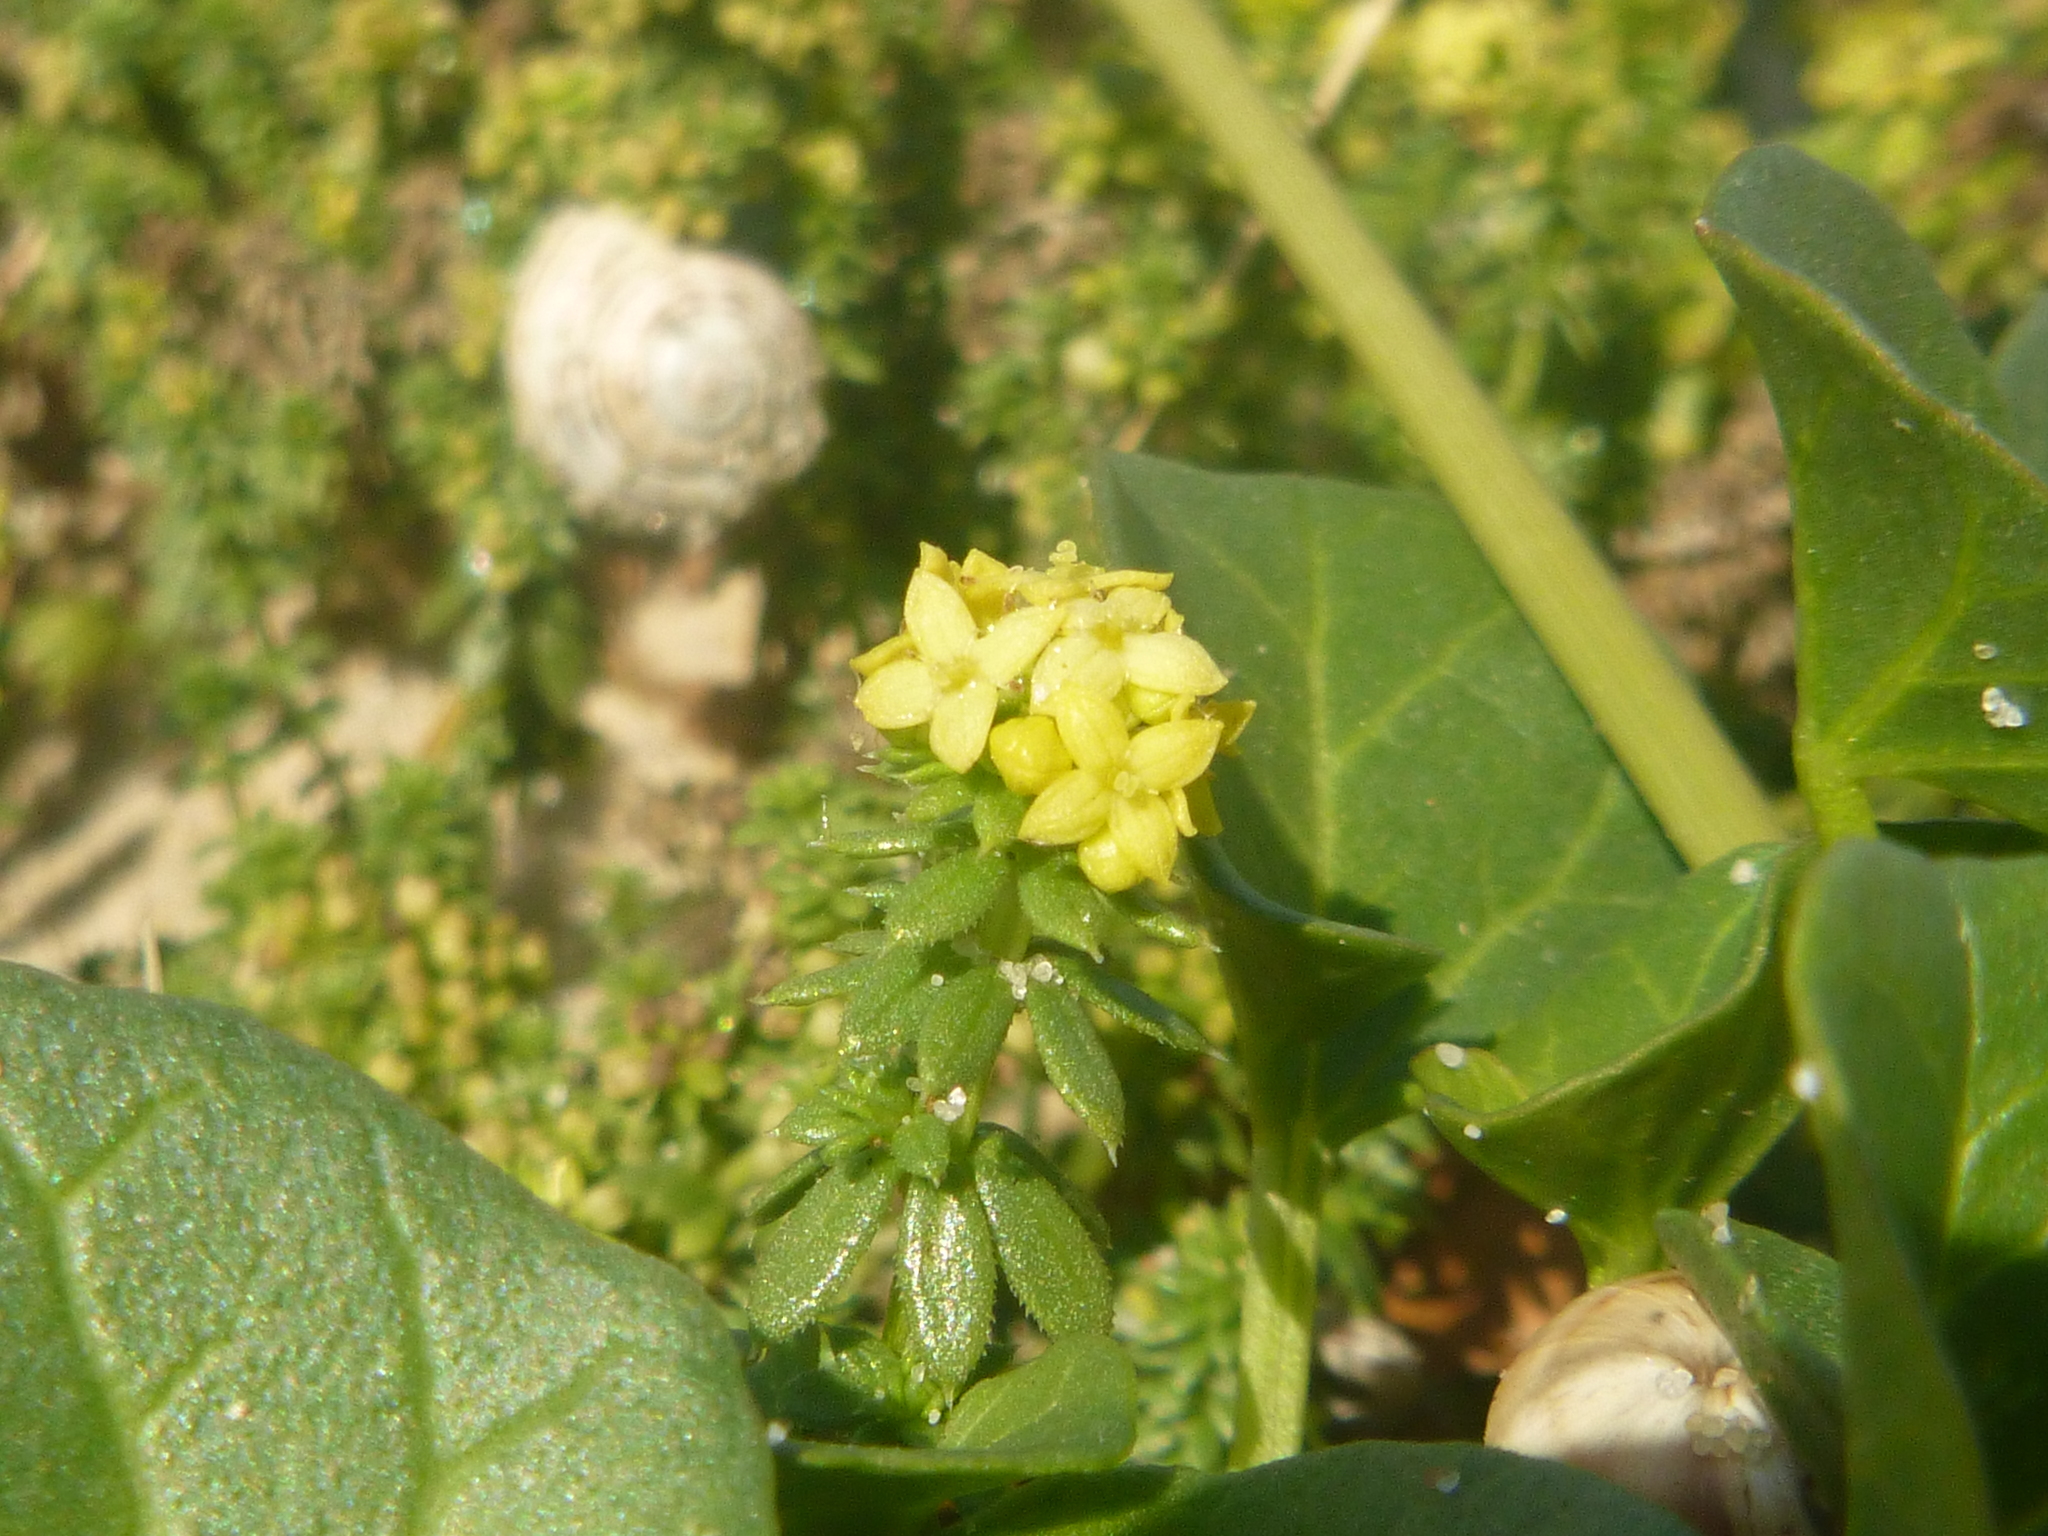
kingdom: Plantae
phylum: Tracheophyta
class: Magnoliopsida
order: Gentianales
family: Rubiaceae
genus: Galium
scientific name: Galium arenarium
